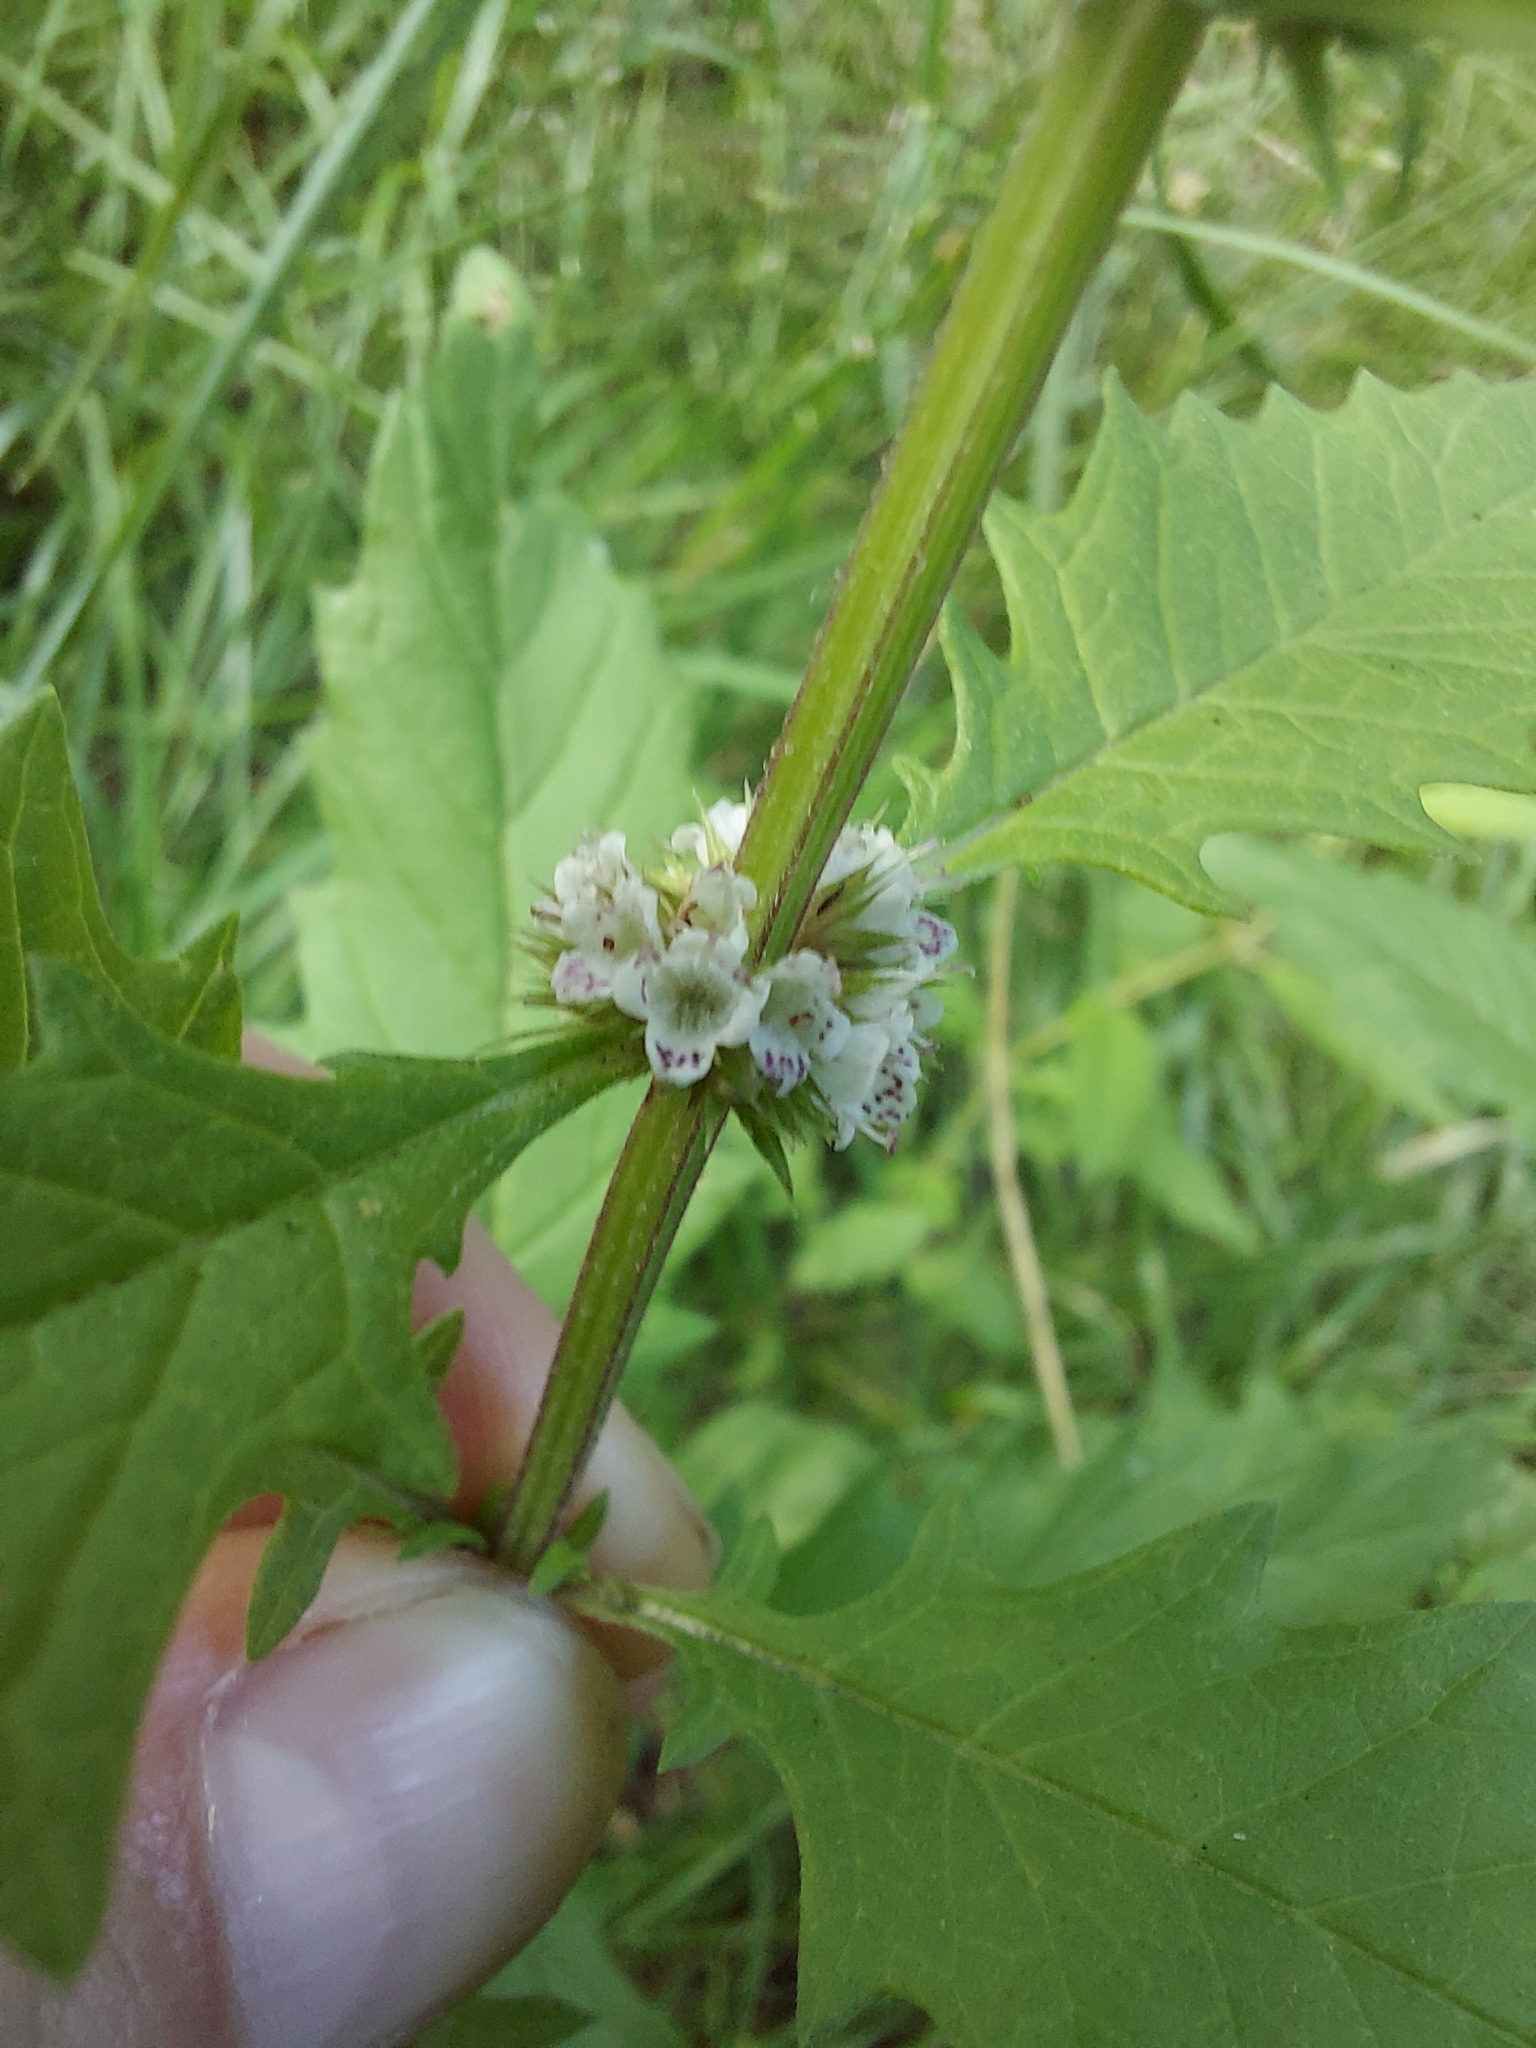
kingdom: Plantae
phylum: Tracheophyta
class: Magnoliopsida
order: Lamiales
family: Lamiaceae
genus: Lycopus
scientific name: Lycopus europaeus
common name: European bugleweed
